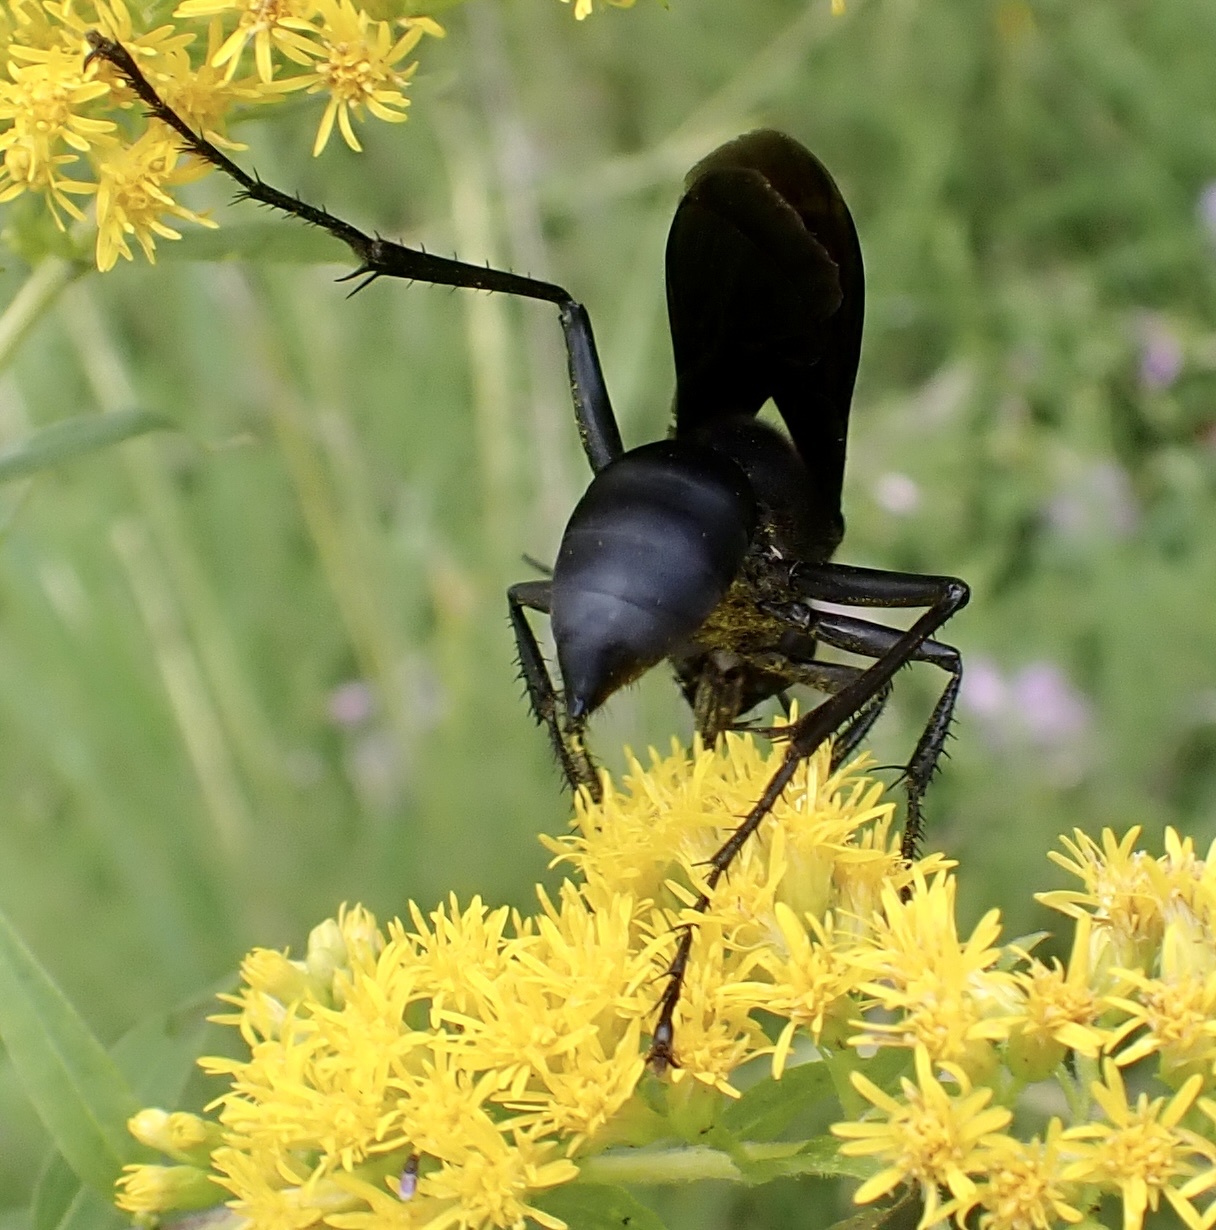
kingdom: Animalia
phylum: Arthropoda
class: Insecta
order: Hymenoptera
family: Sphecidae
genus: Sphex
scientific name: Sphex pensylvanicus
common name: Great black digger wasp
